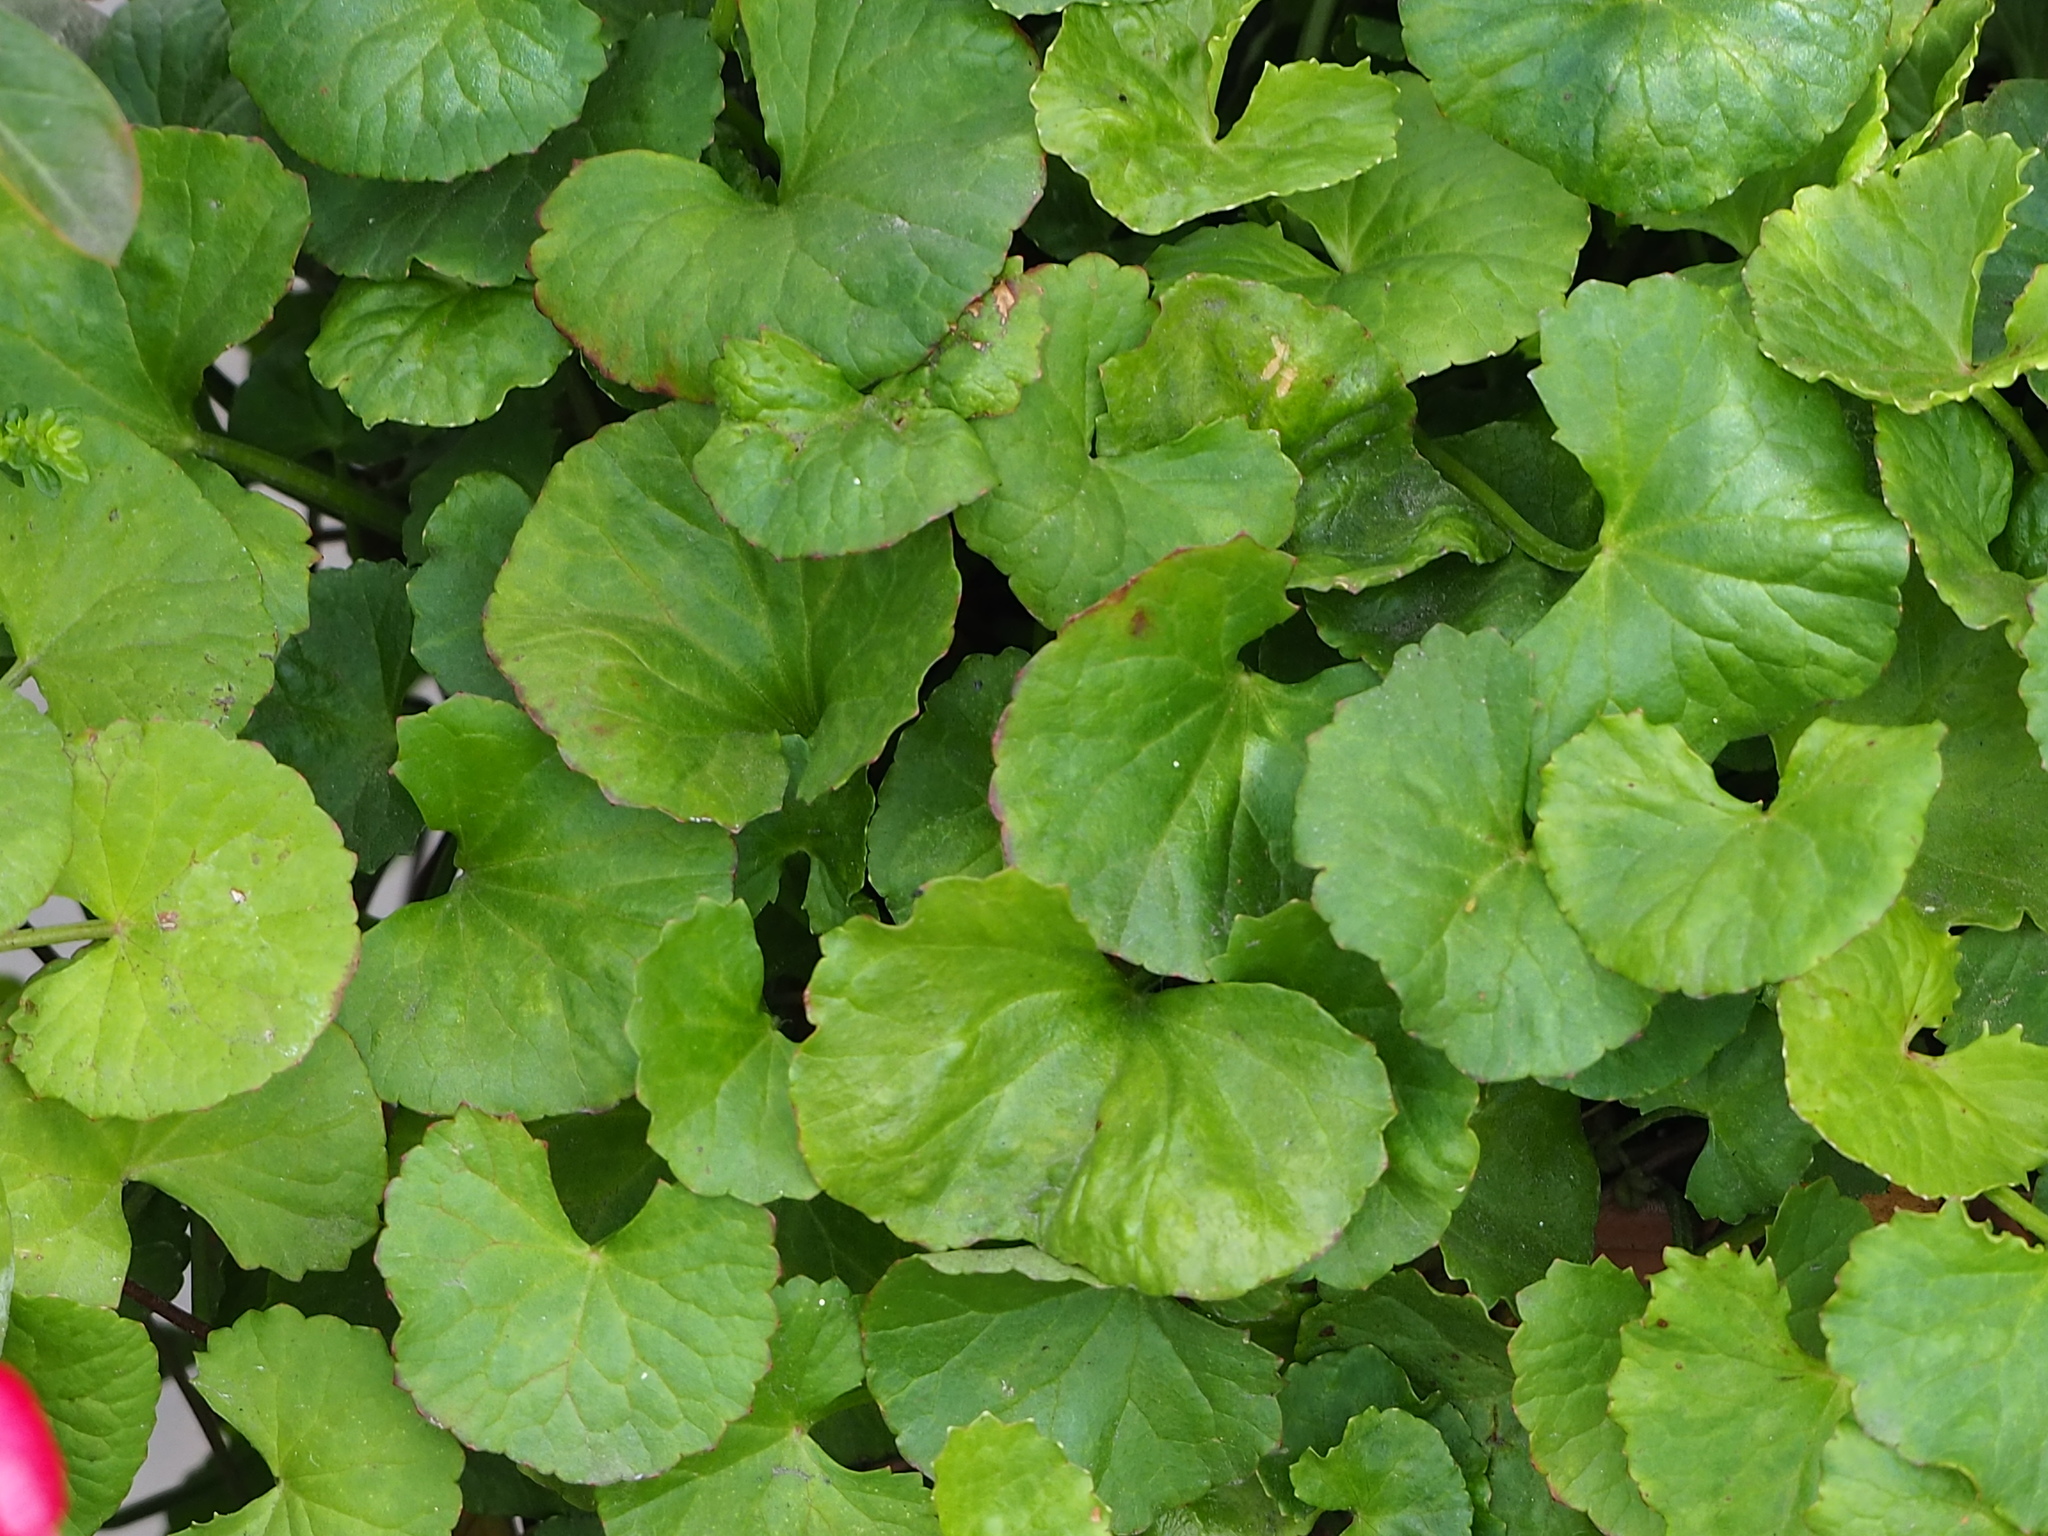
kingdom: Plantae
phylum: Tracheophyta
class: Magnoliopsida
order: Apiales
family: Apiaceae
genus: Centella
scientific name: Centella asiatica
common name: Spadeleaf
